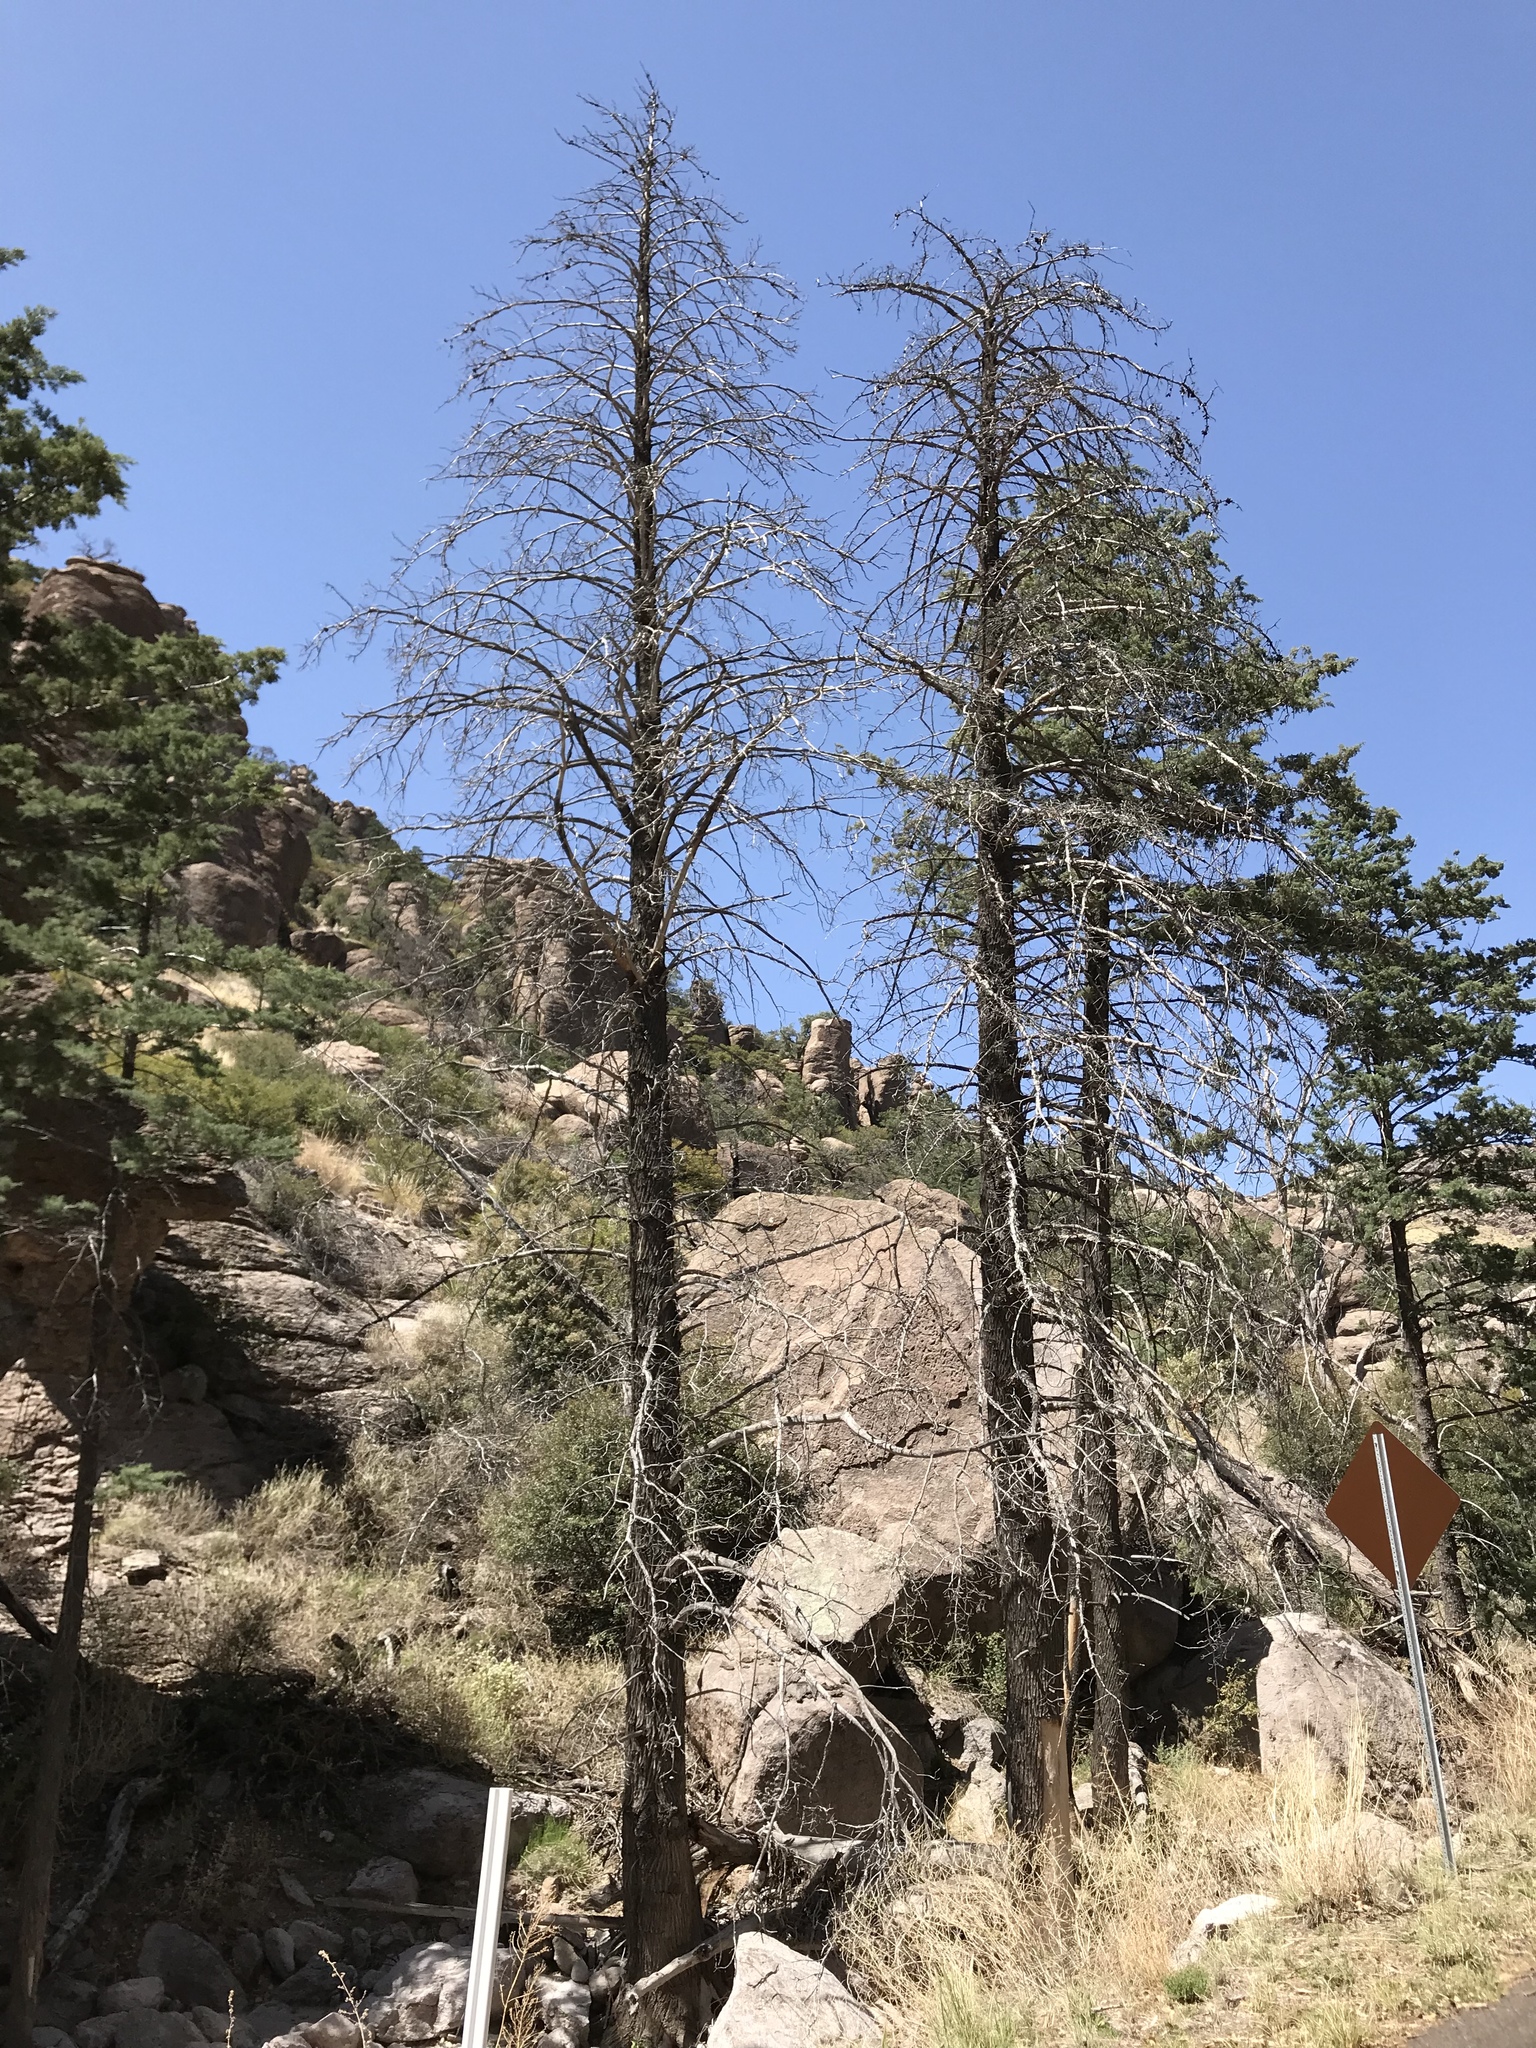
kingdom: Plantae
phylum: Tracheophyta
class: Pinopsida
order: Pinales
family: Cupressaceae
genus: Cupressus
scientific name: Cupressus arizonica
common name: Arizona cypress
